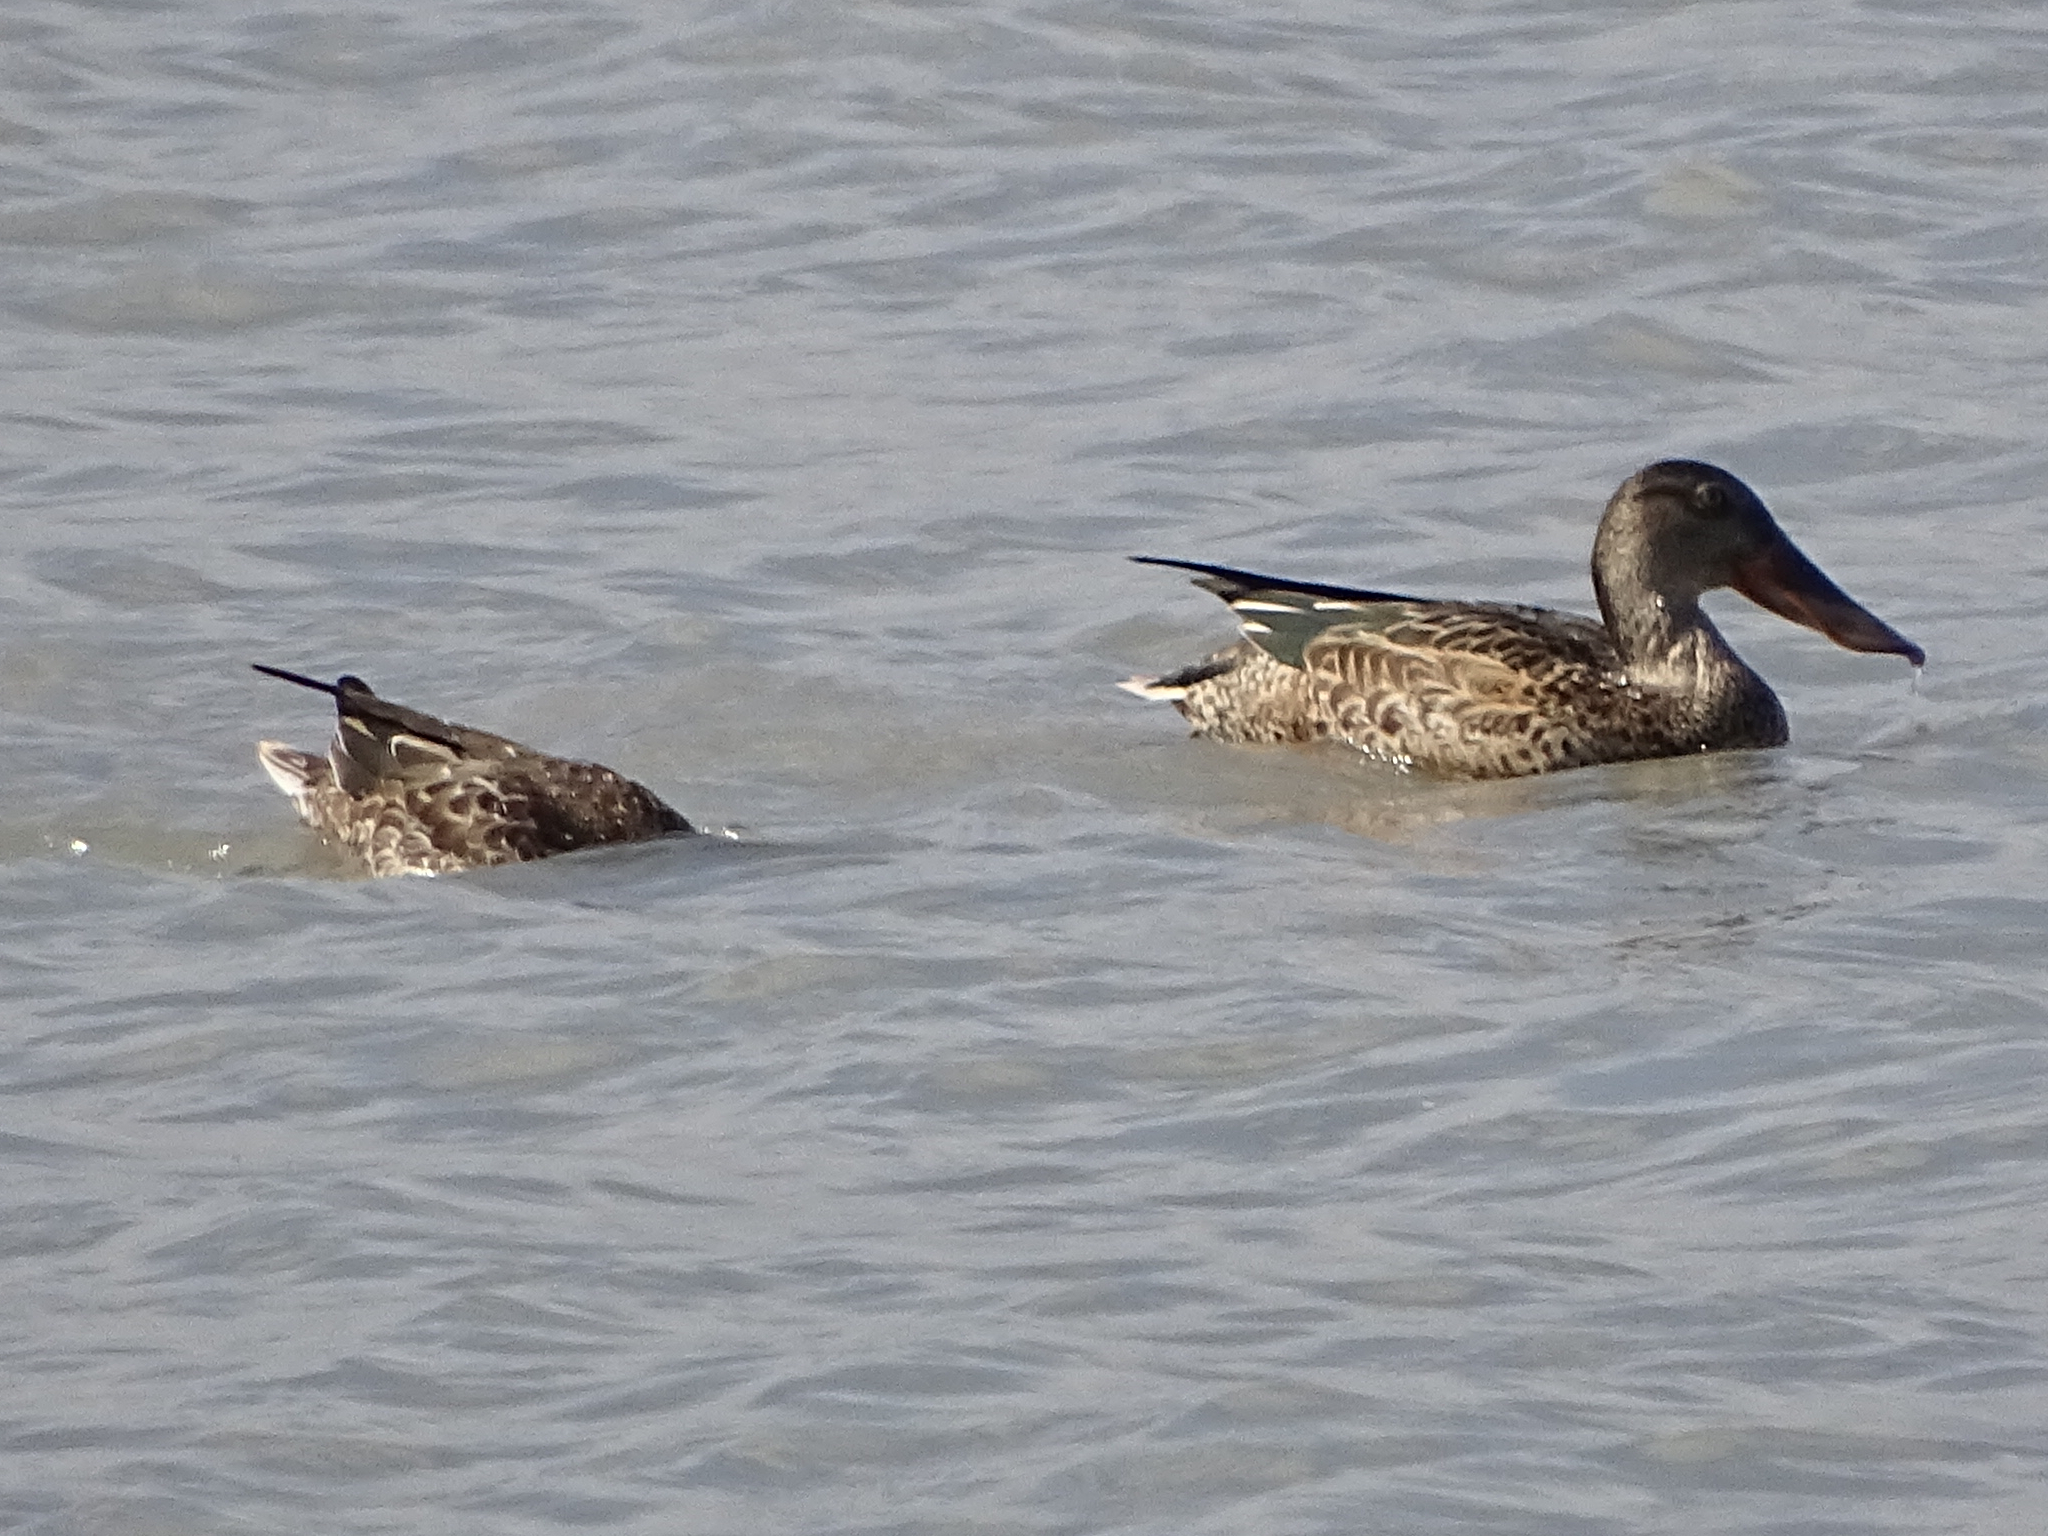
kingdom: Animalia
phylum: Chordata
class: Aves
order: Anseriformes
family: Anatidae
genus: Spatula
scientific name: Spatula clypeata
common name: Northern shoveler
